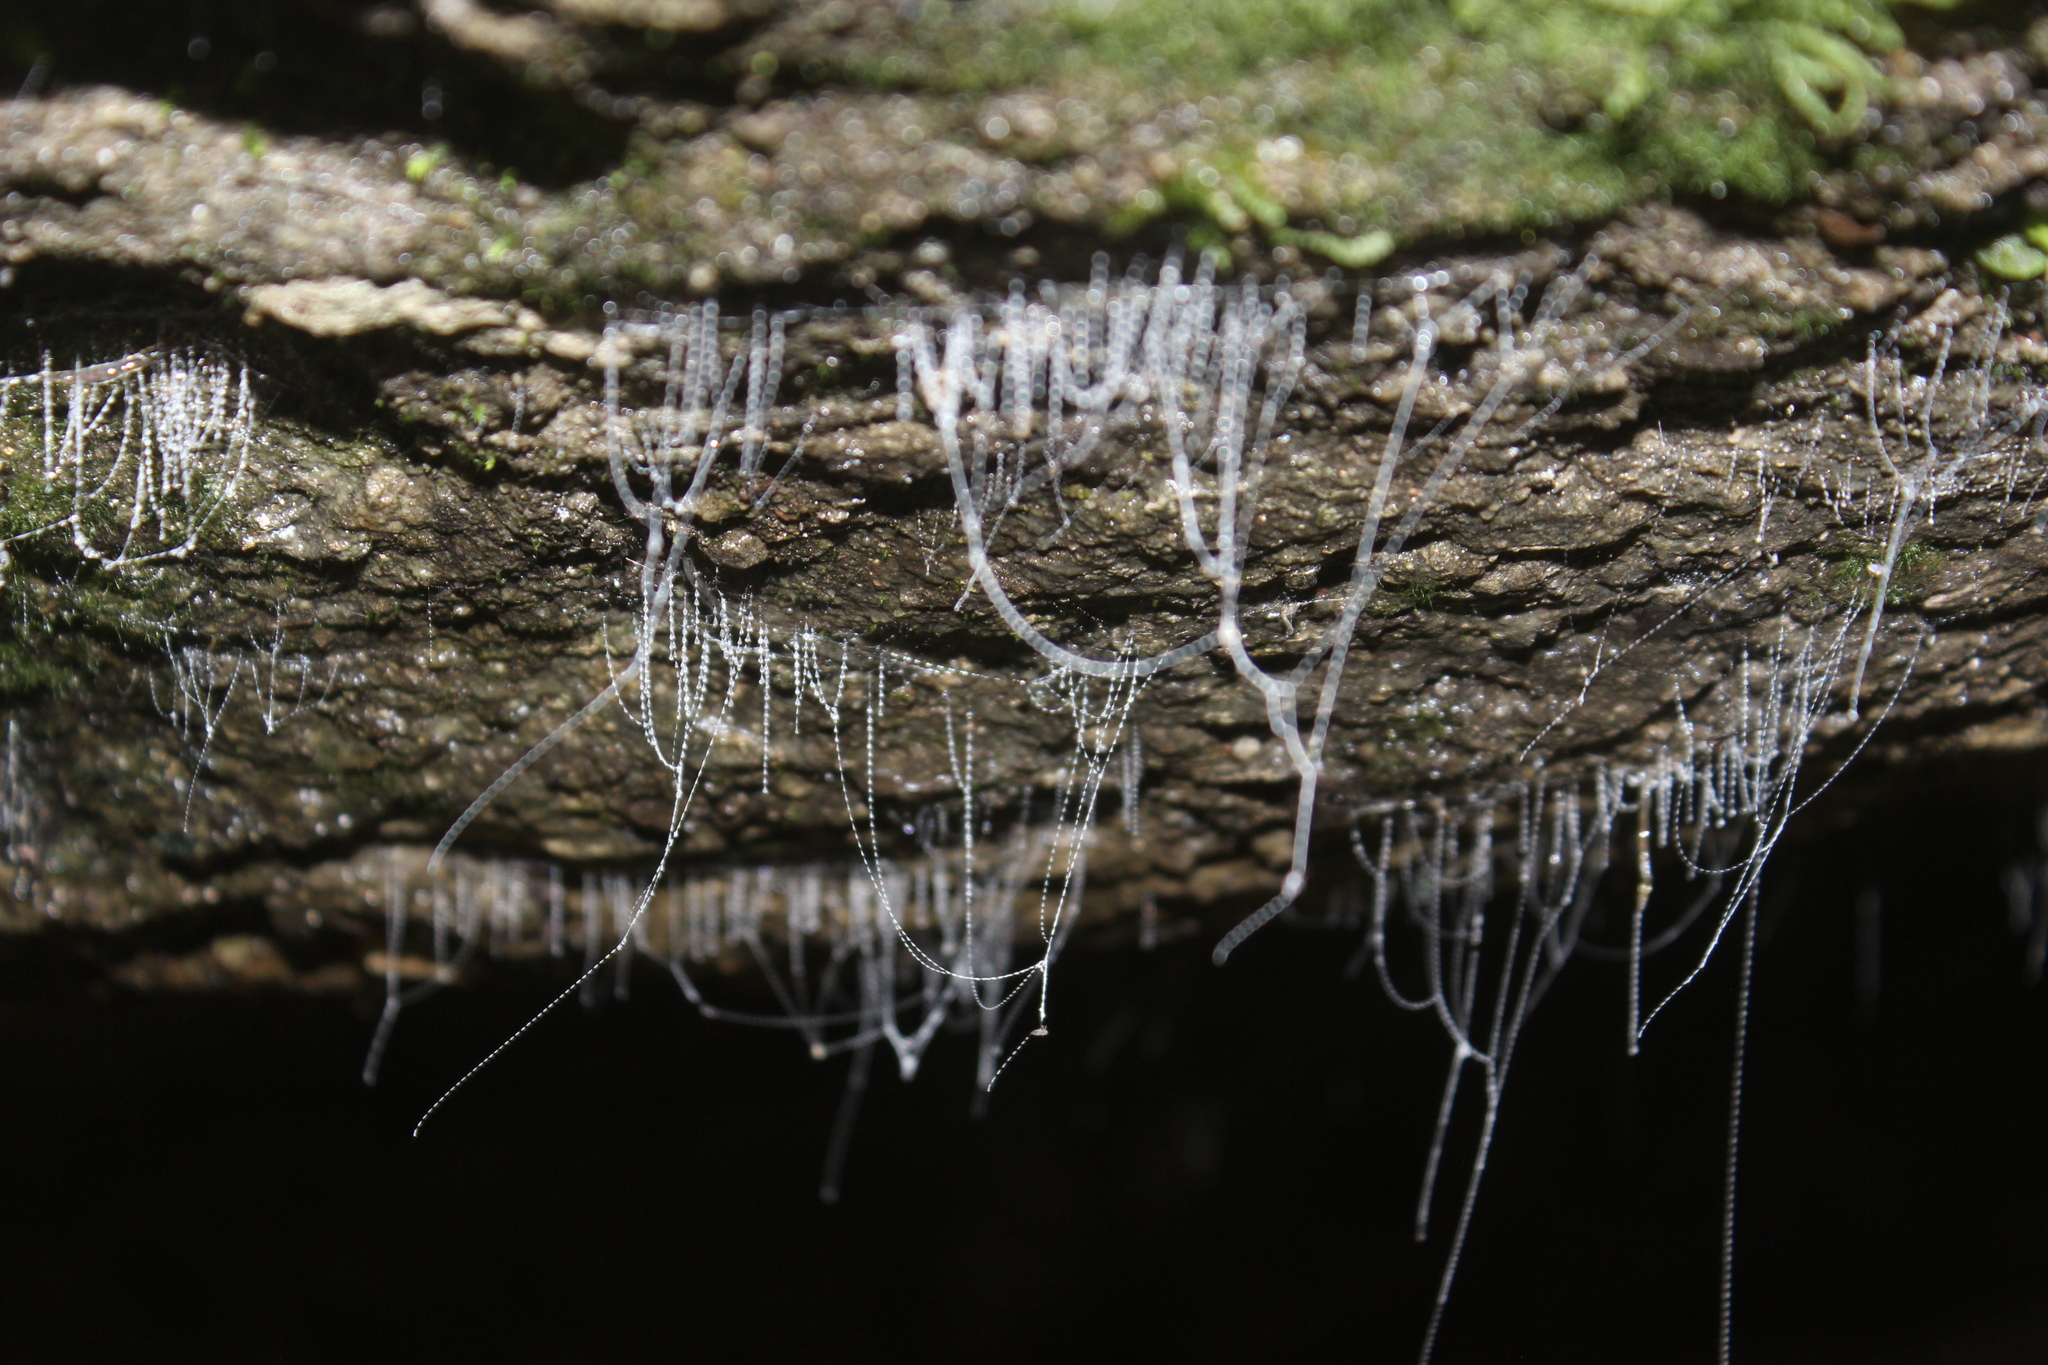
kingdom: Animalia
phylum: Arthropoda
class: Insecta
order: Diptera
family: Keroplatidae
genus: Arachnocampa
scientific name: Arachnocampa luminosa
